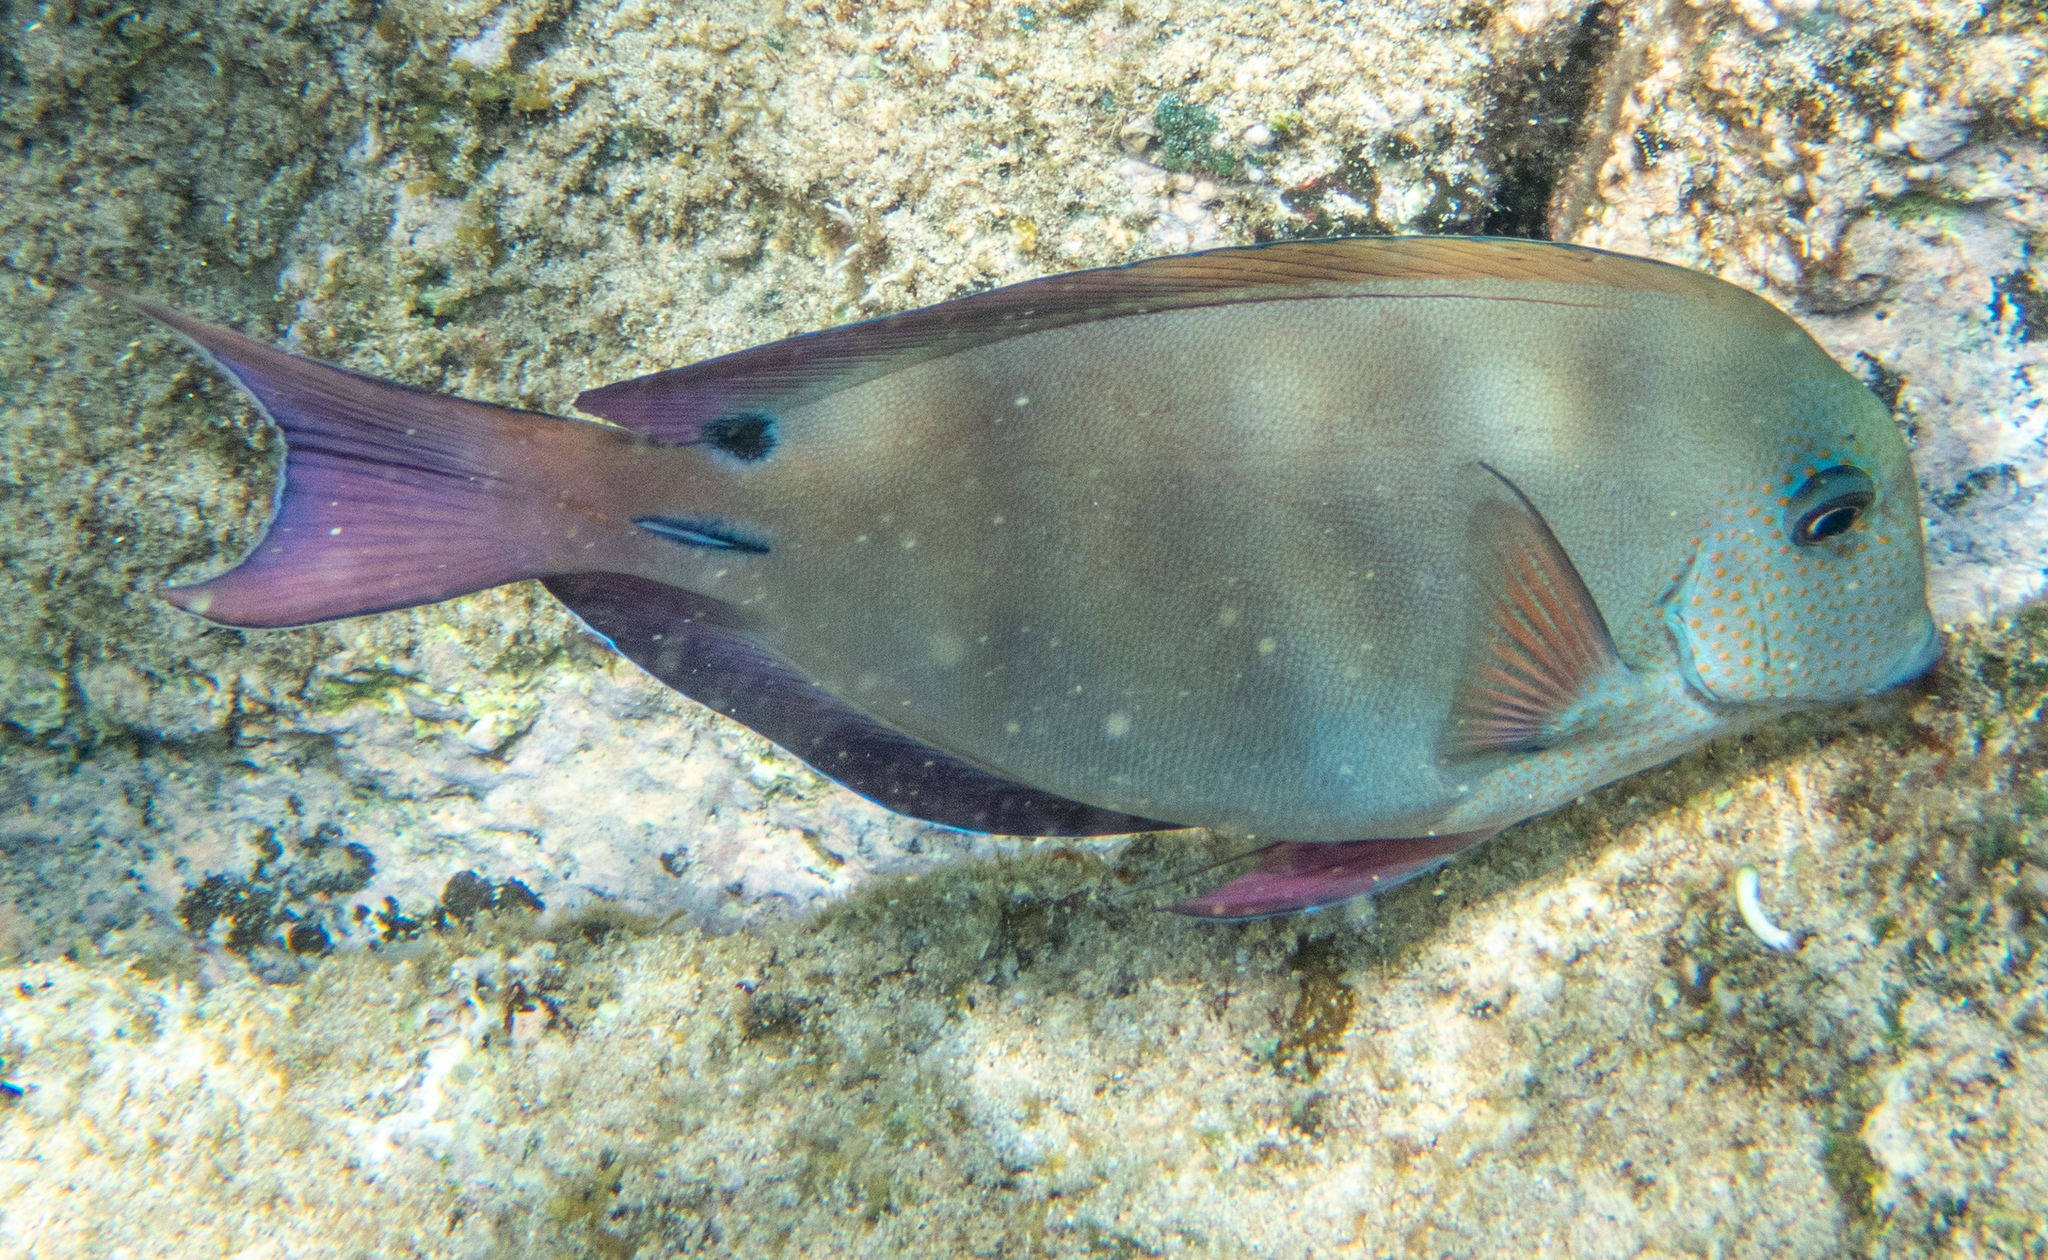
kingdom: Animalia
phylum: Chordata
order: Perciformes
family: Acanthuridae
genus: Acanthurus
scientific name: Acanthurus nigrofuscus
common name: Blackspot surgeonfish
